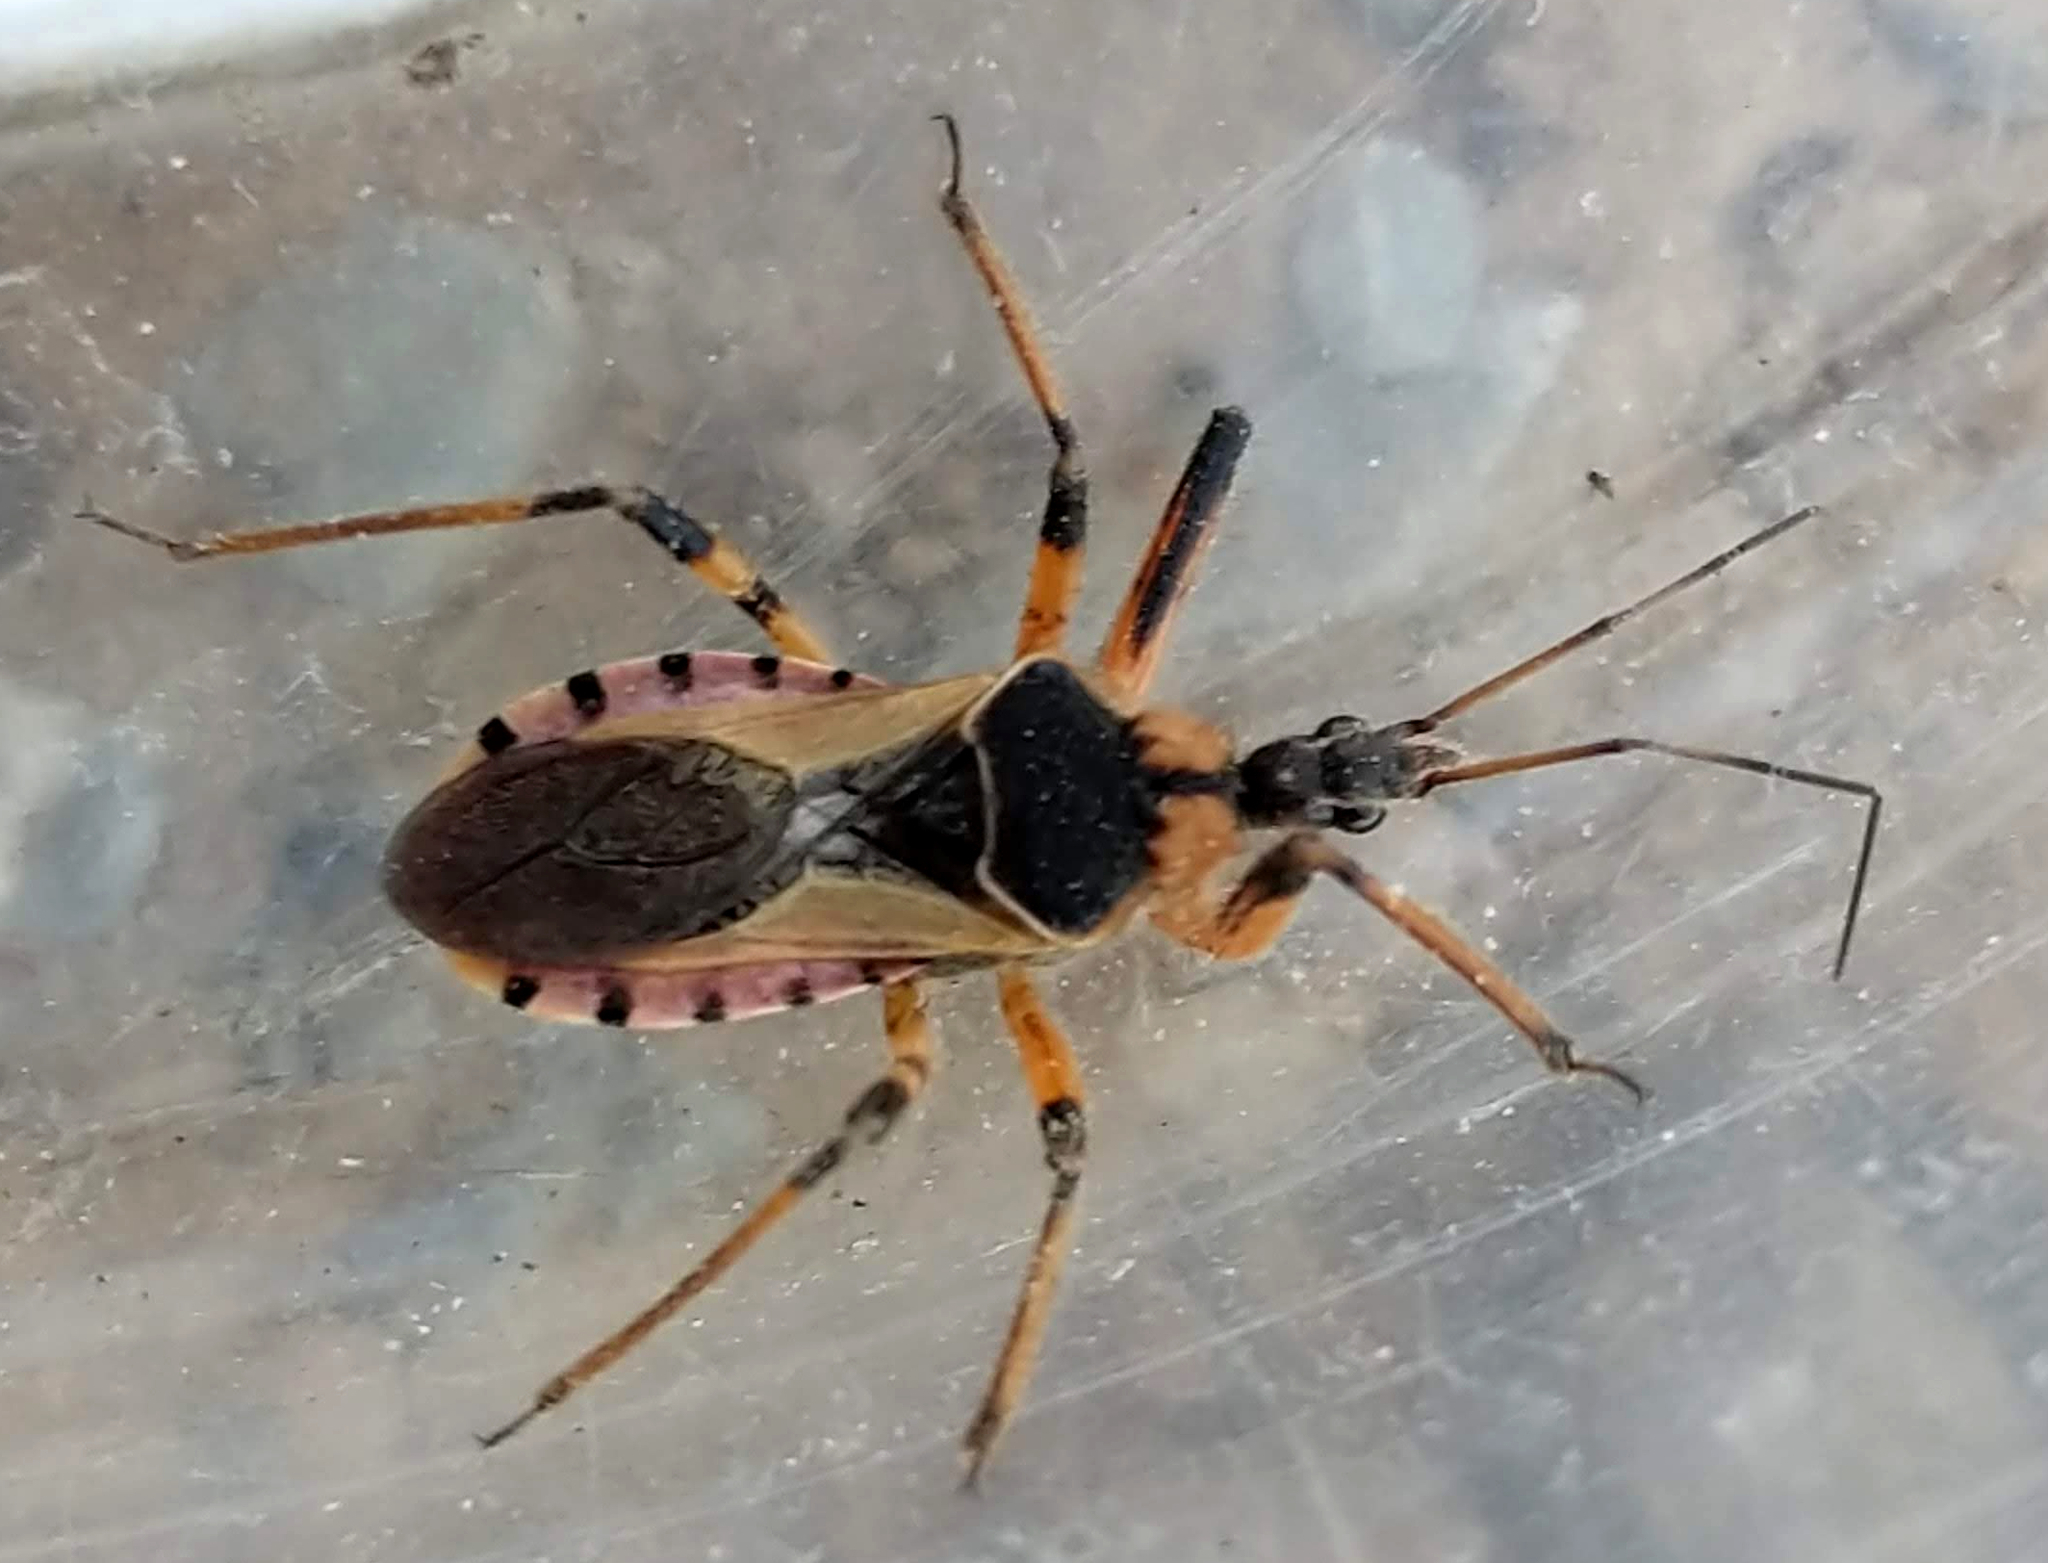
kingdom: Animalia
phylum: Arthropoda
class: Insecta
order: Hemiptera
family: Reduviidae
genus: Rhynocoris
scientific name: Rhynocoris ventralis
